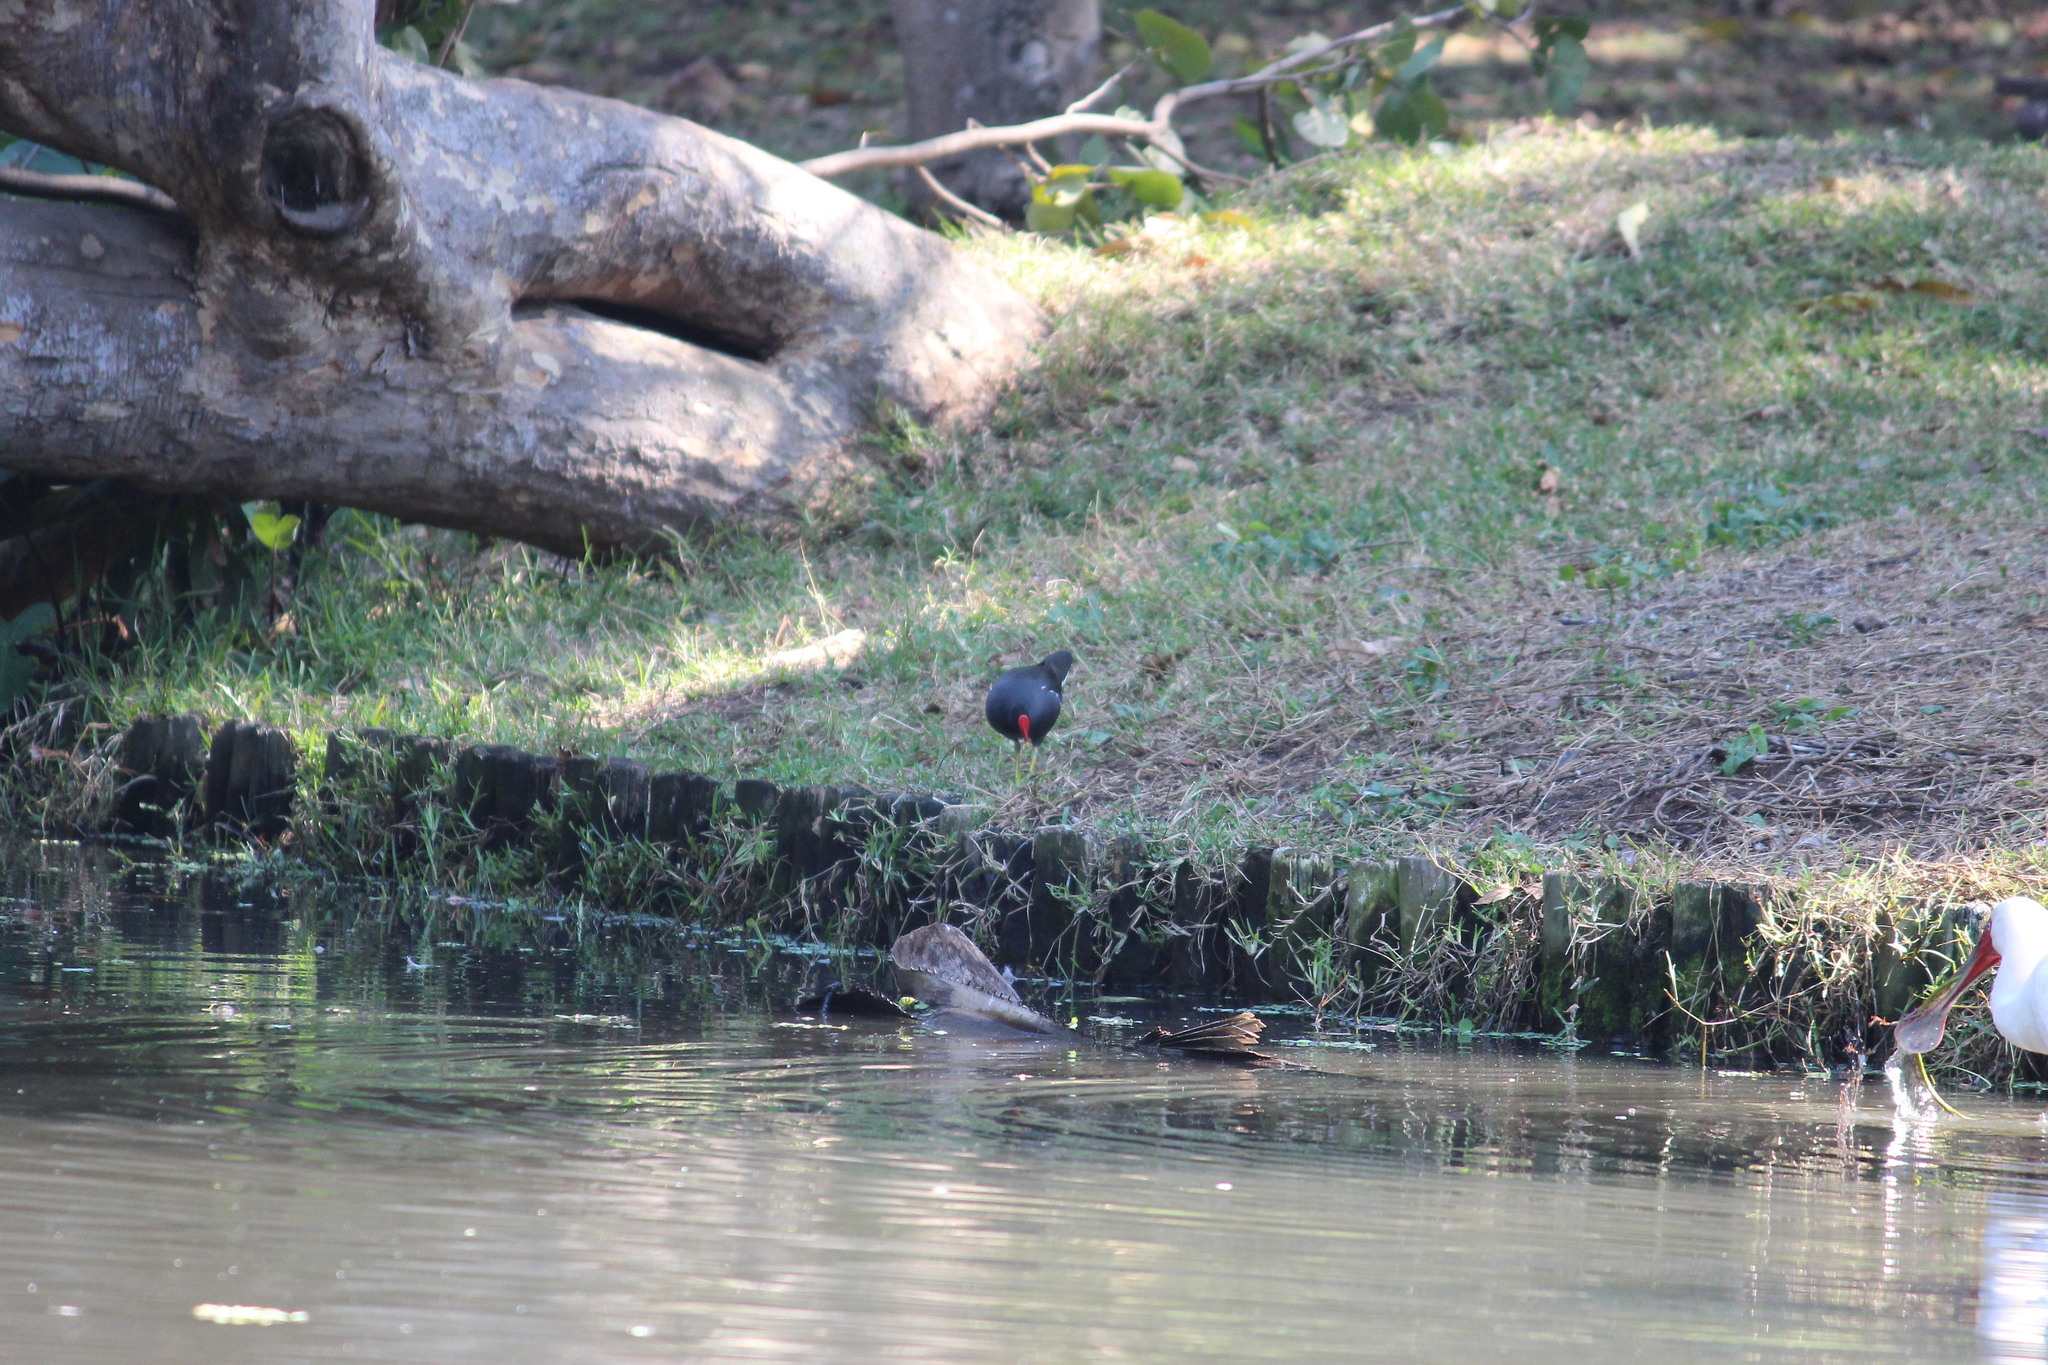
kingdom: Animalia
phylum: Chordata
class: Aves
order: Gruiformes
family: Rallidae
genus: Gallinula
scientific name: Gallinula chloropus
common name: Common moorhen
